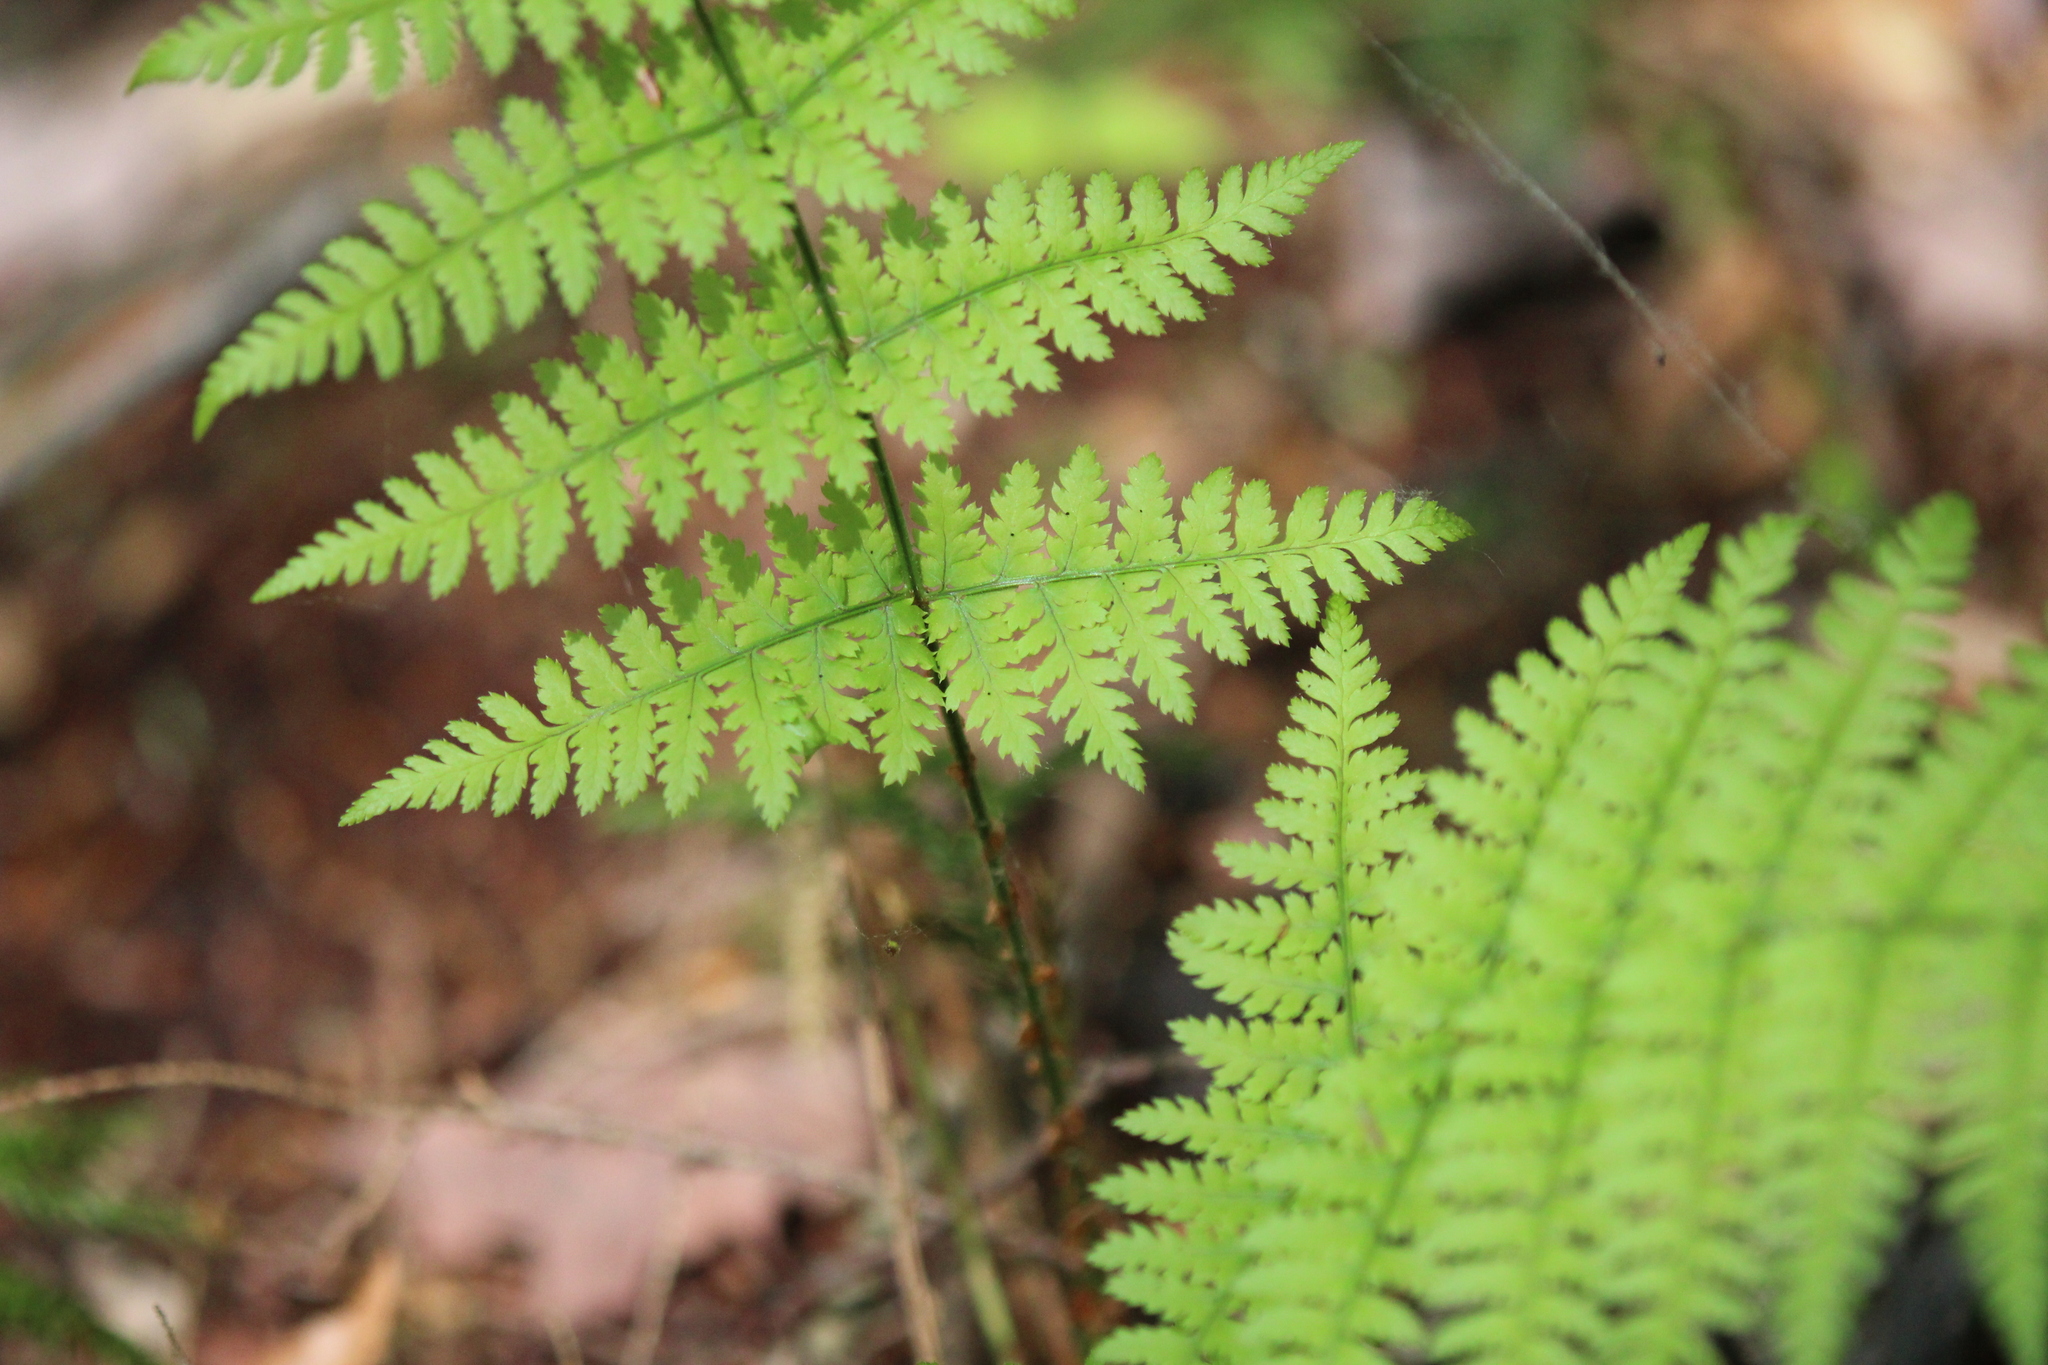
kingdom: Plantae
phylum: Tracheophyta
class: Polypodiopsida
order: Polypodiales
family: Dryopteridaceae
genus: Dryopteris
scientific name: Dryopteris intermedia
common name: Evergreen wood fern
